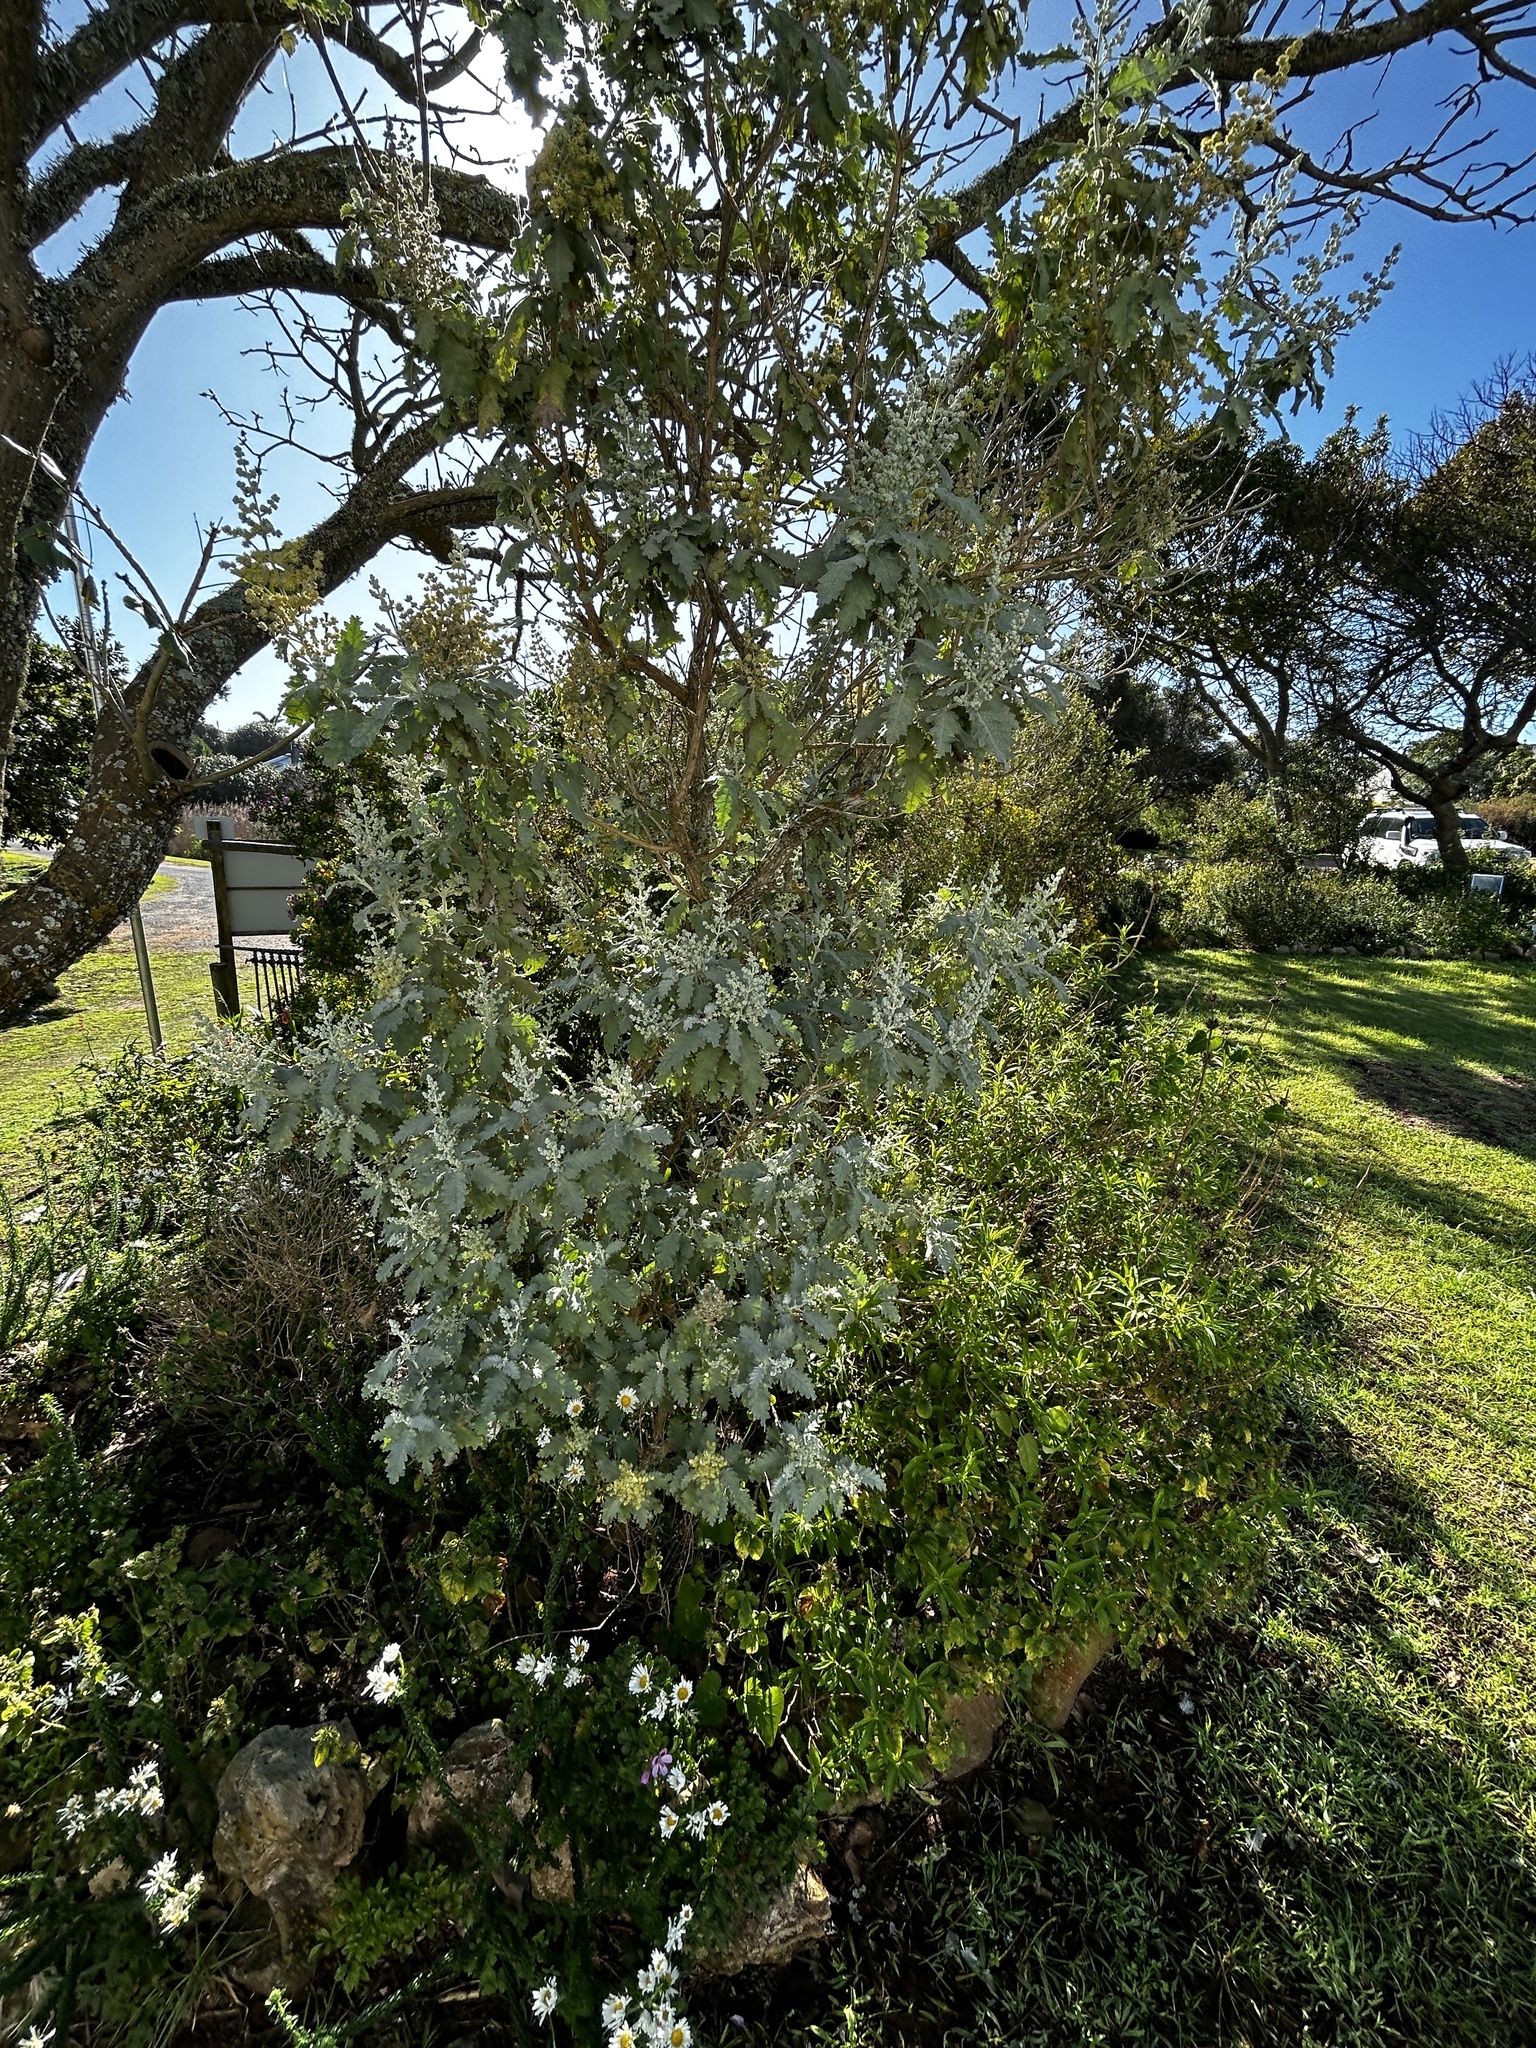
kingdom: Plantae
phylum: Tracheophyta
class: Magnoliopsida
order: Lamiales
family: Scrophulariaceae
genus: Buddleja
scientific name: Buddleja glomerata
